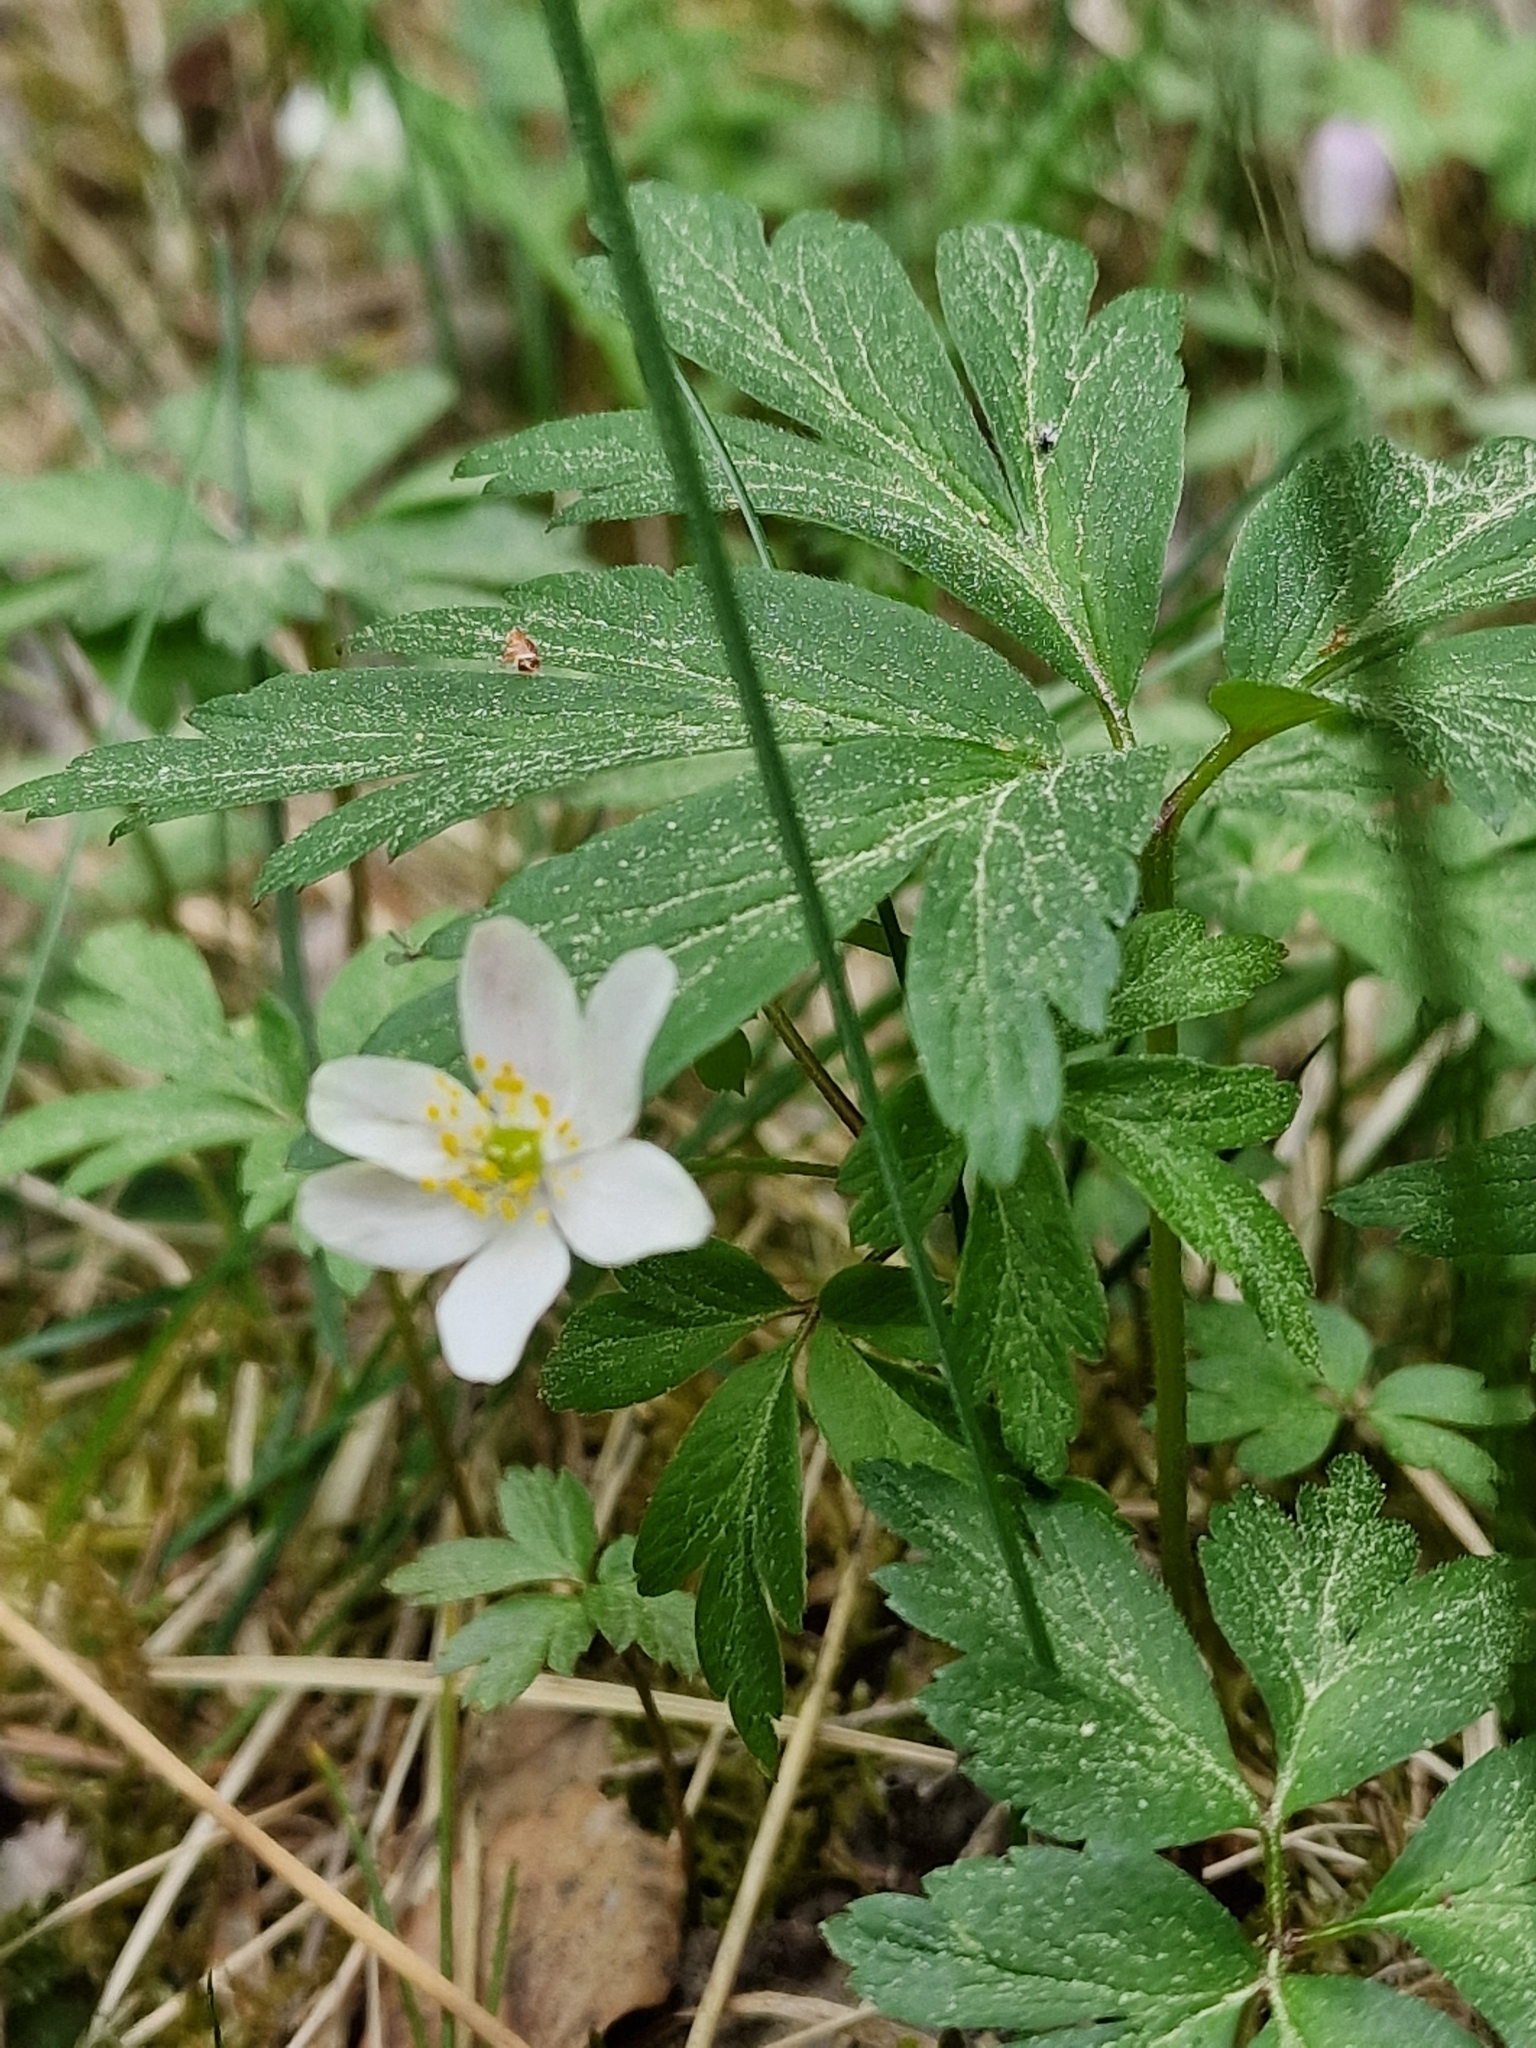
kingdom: Plantae
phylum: Tracheophyta
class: Magnoliopsida
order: Ranunculales
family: Ranunculaceae
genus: Anemone
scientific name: Anemone nemorosa
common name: Wood anemone
